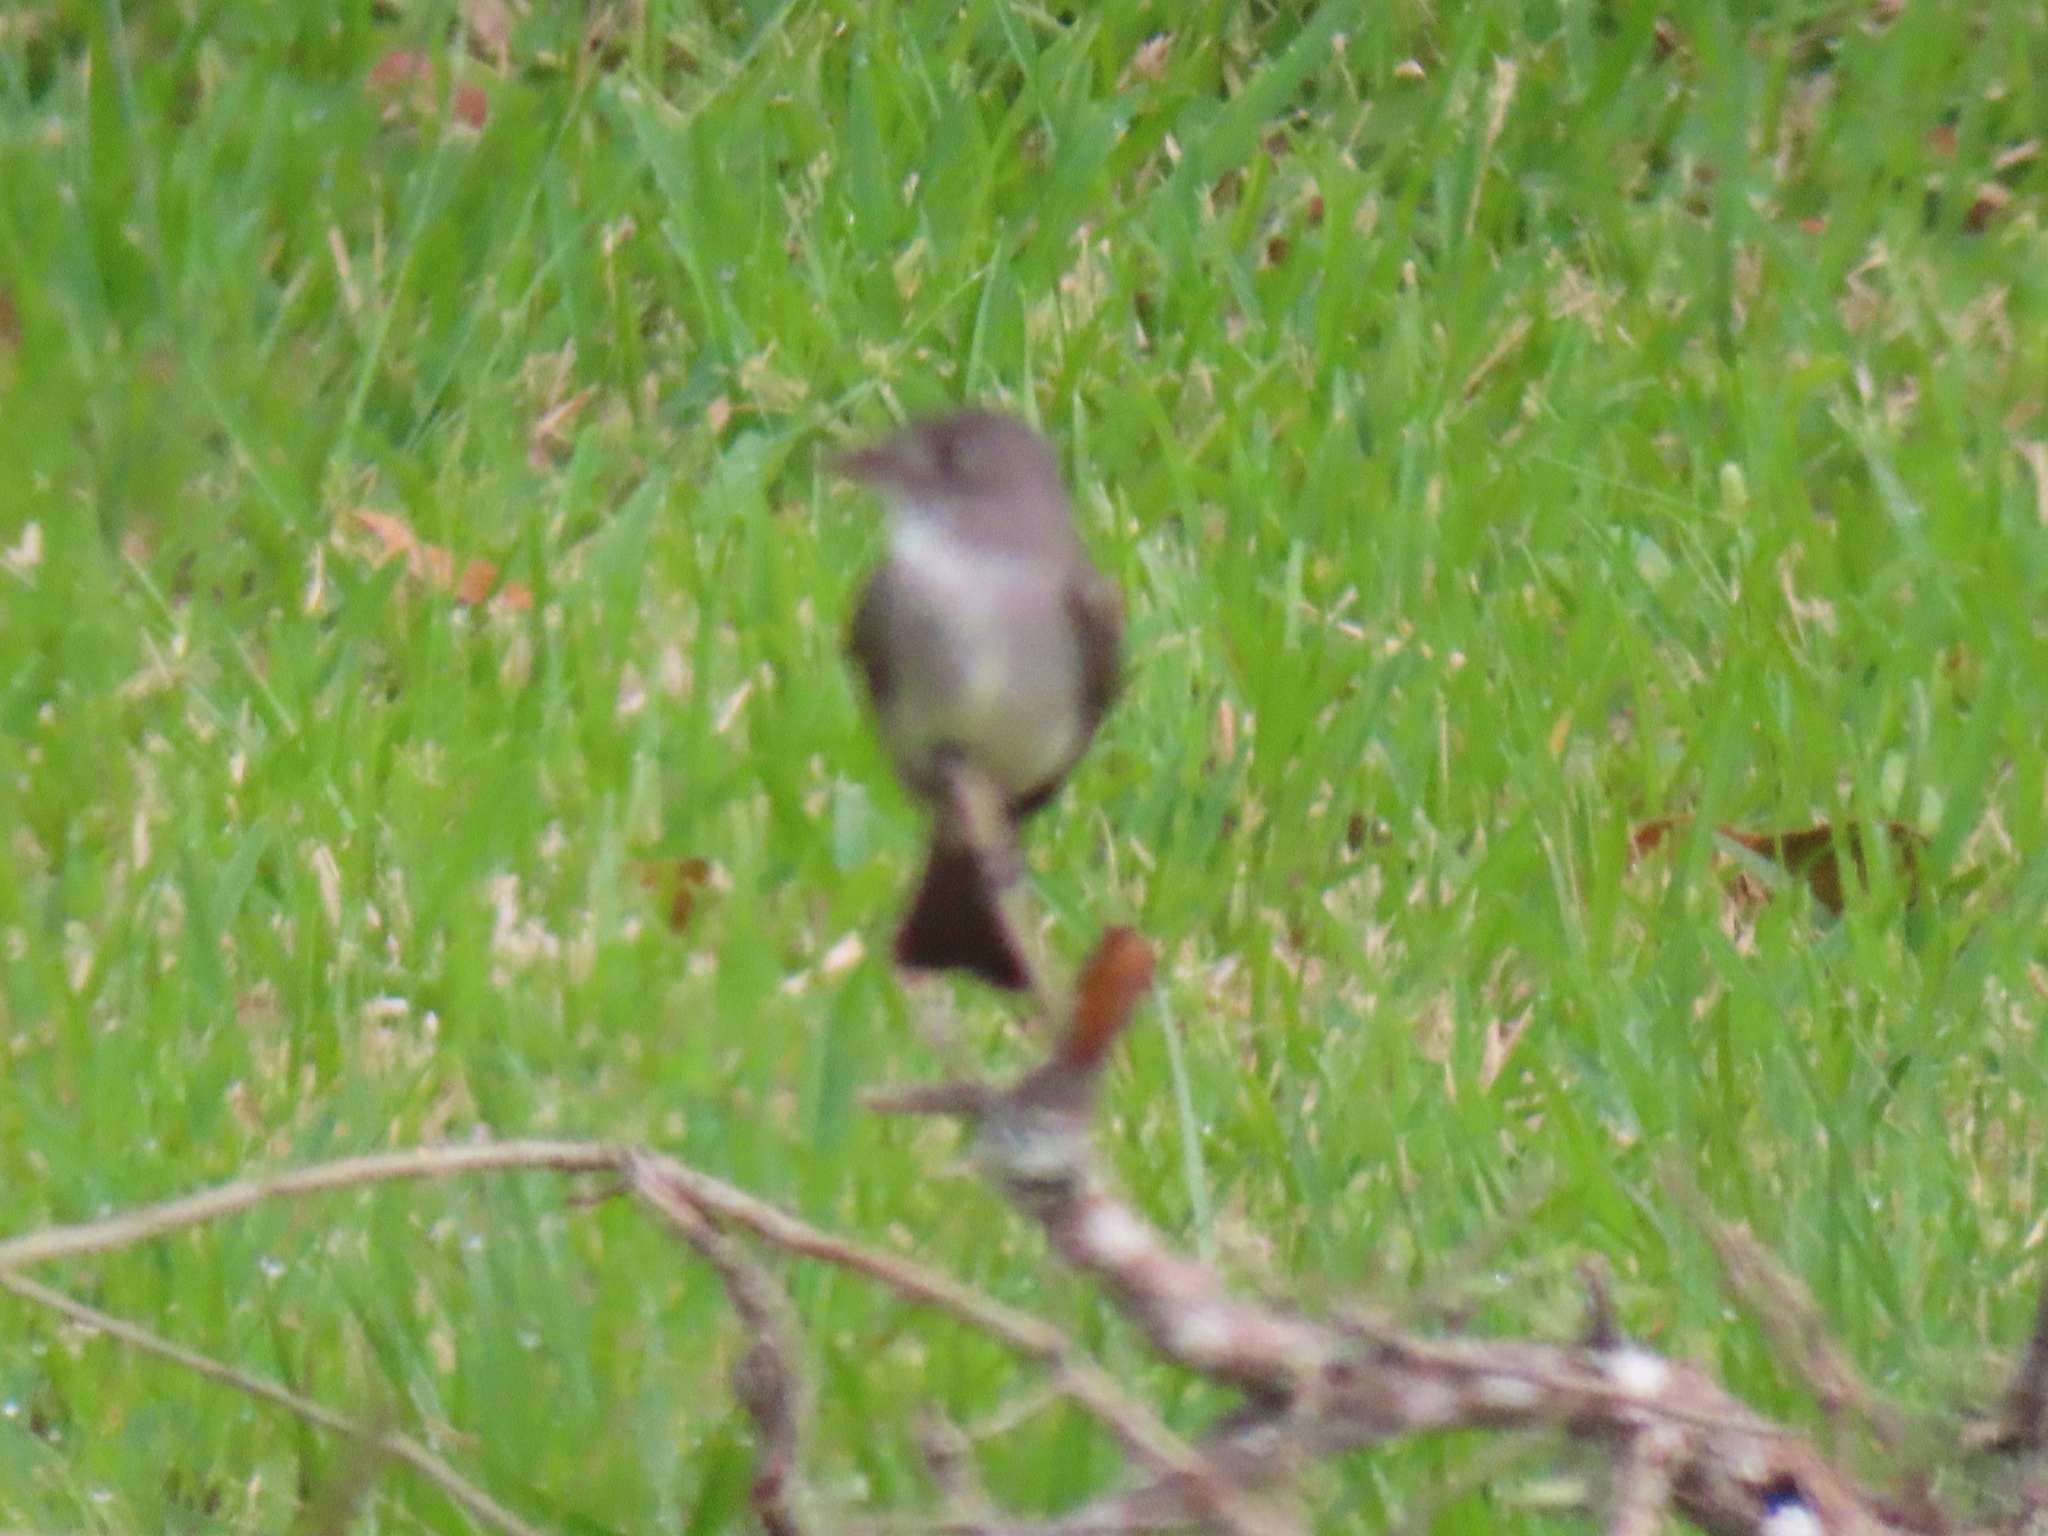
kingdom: Animalia
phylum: Chordata
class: Aves
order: Passeriformes
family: Tyrannidae
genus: Contopus
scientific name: Contopus virens
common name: Eastern wood-pewee
